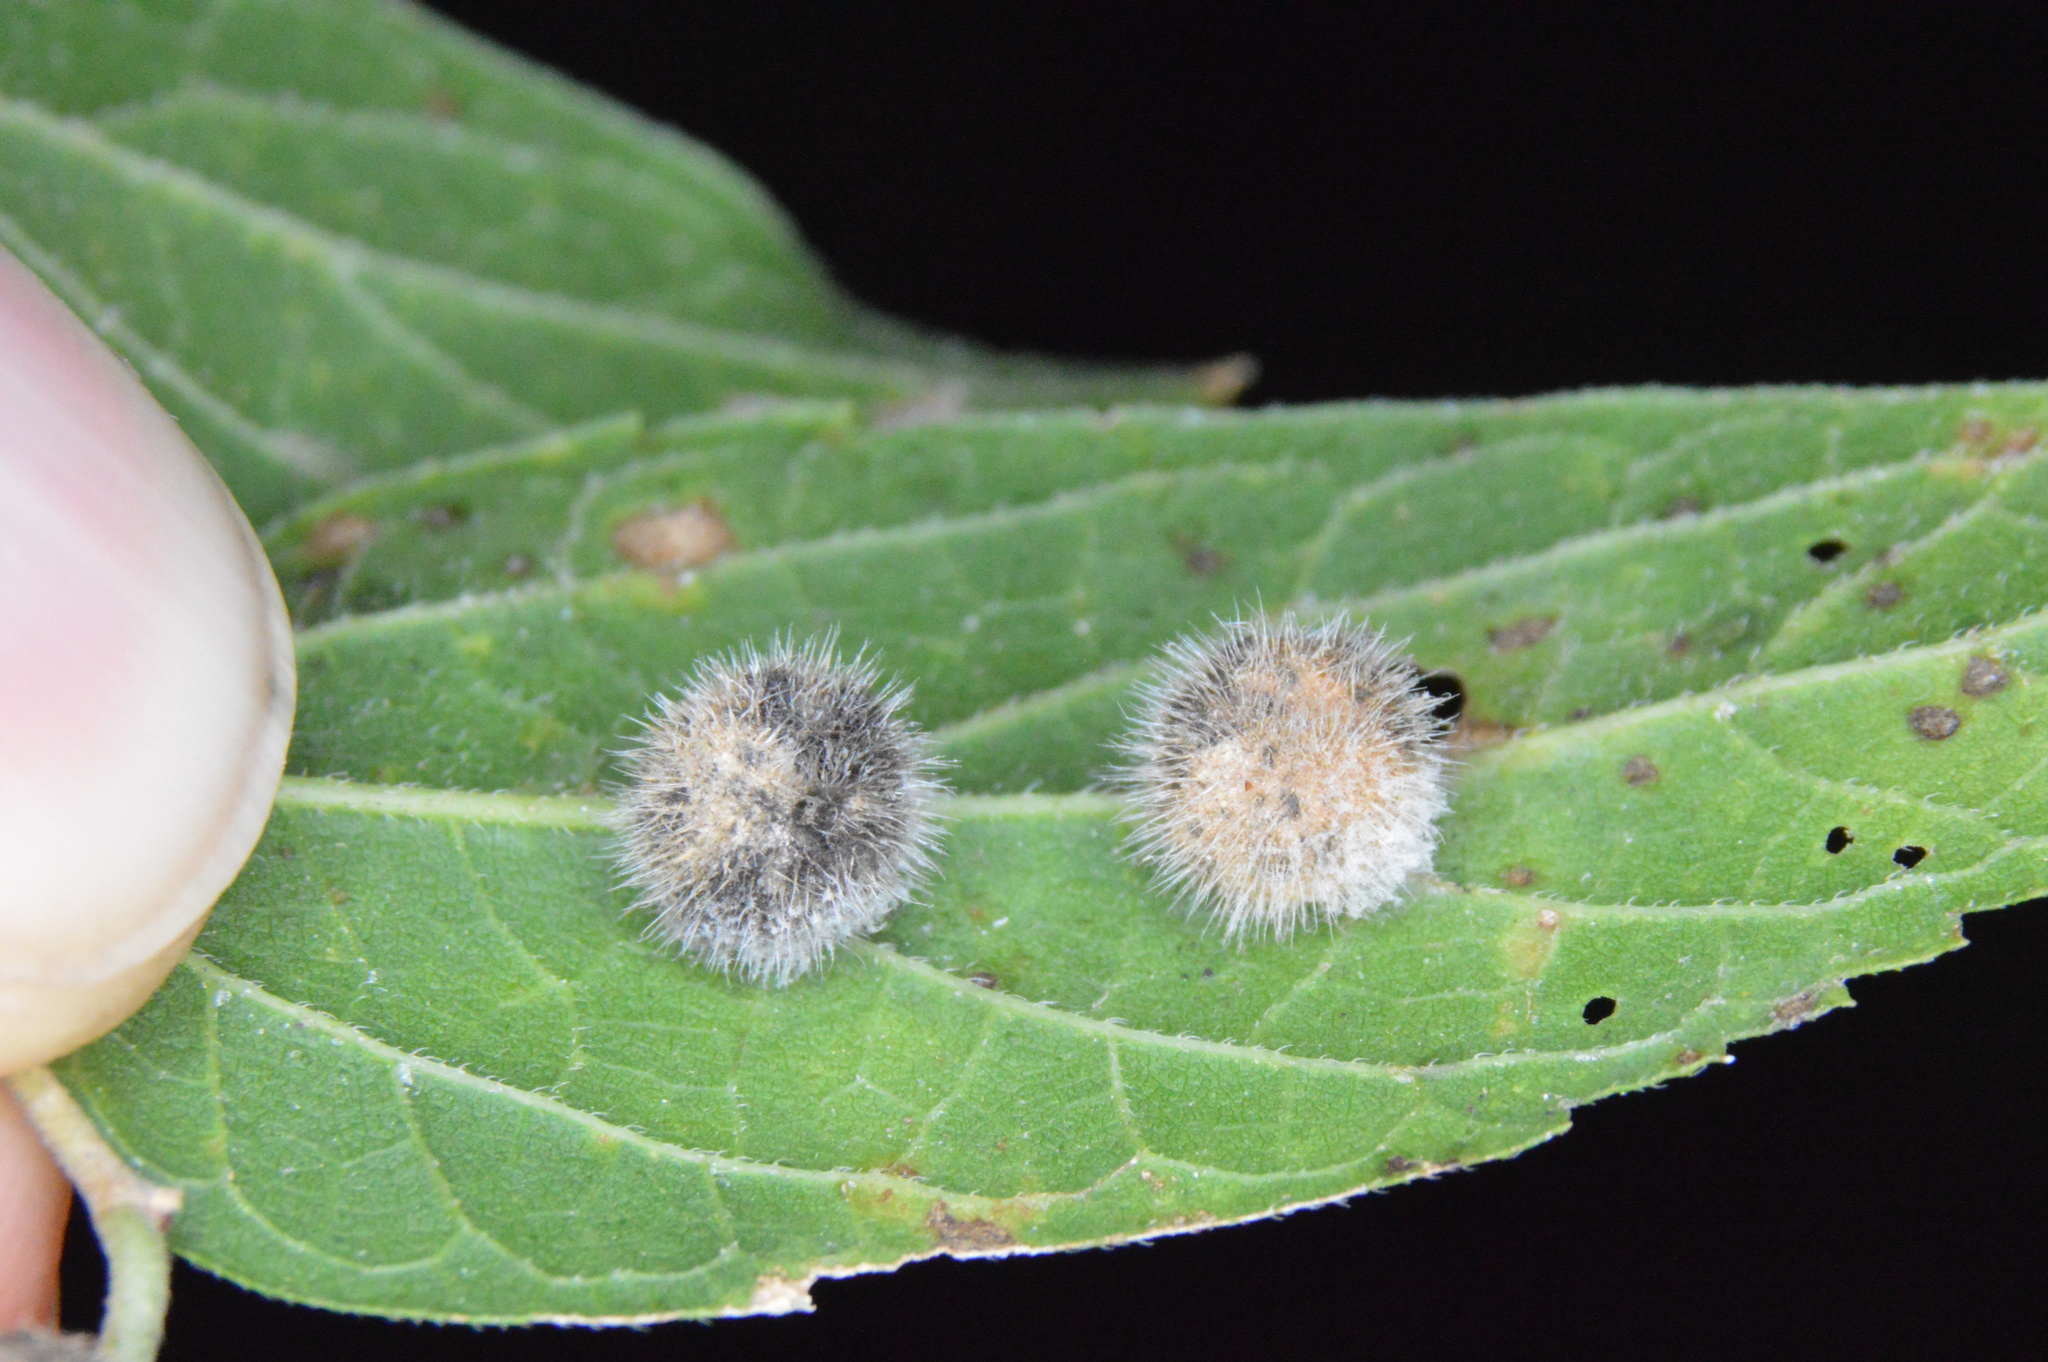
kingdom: Animalia
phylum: Arthropoda
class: Insecta
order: Diptera
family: Cecidomyiidae
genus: Celticecis
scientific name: Celticecis pubescens
